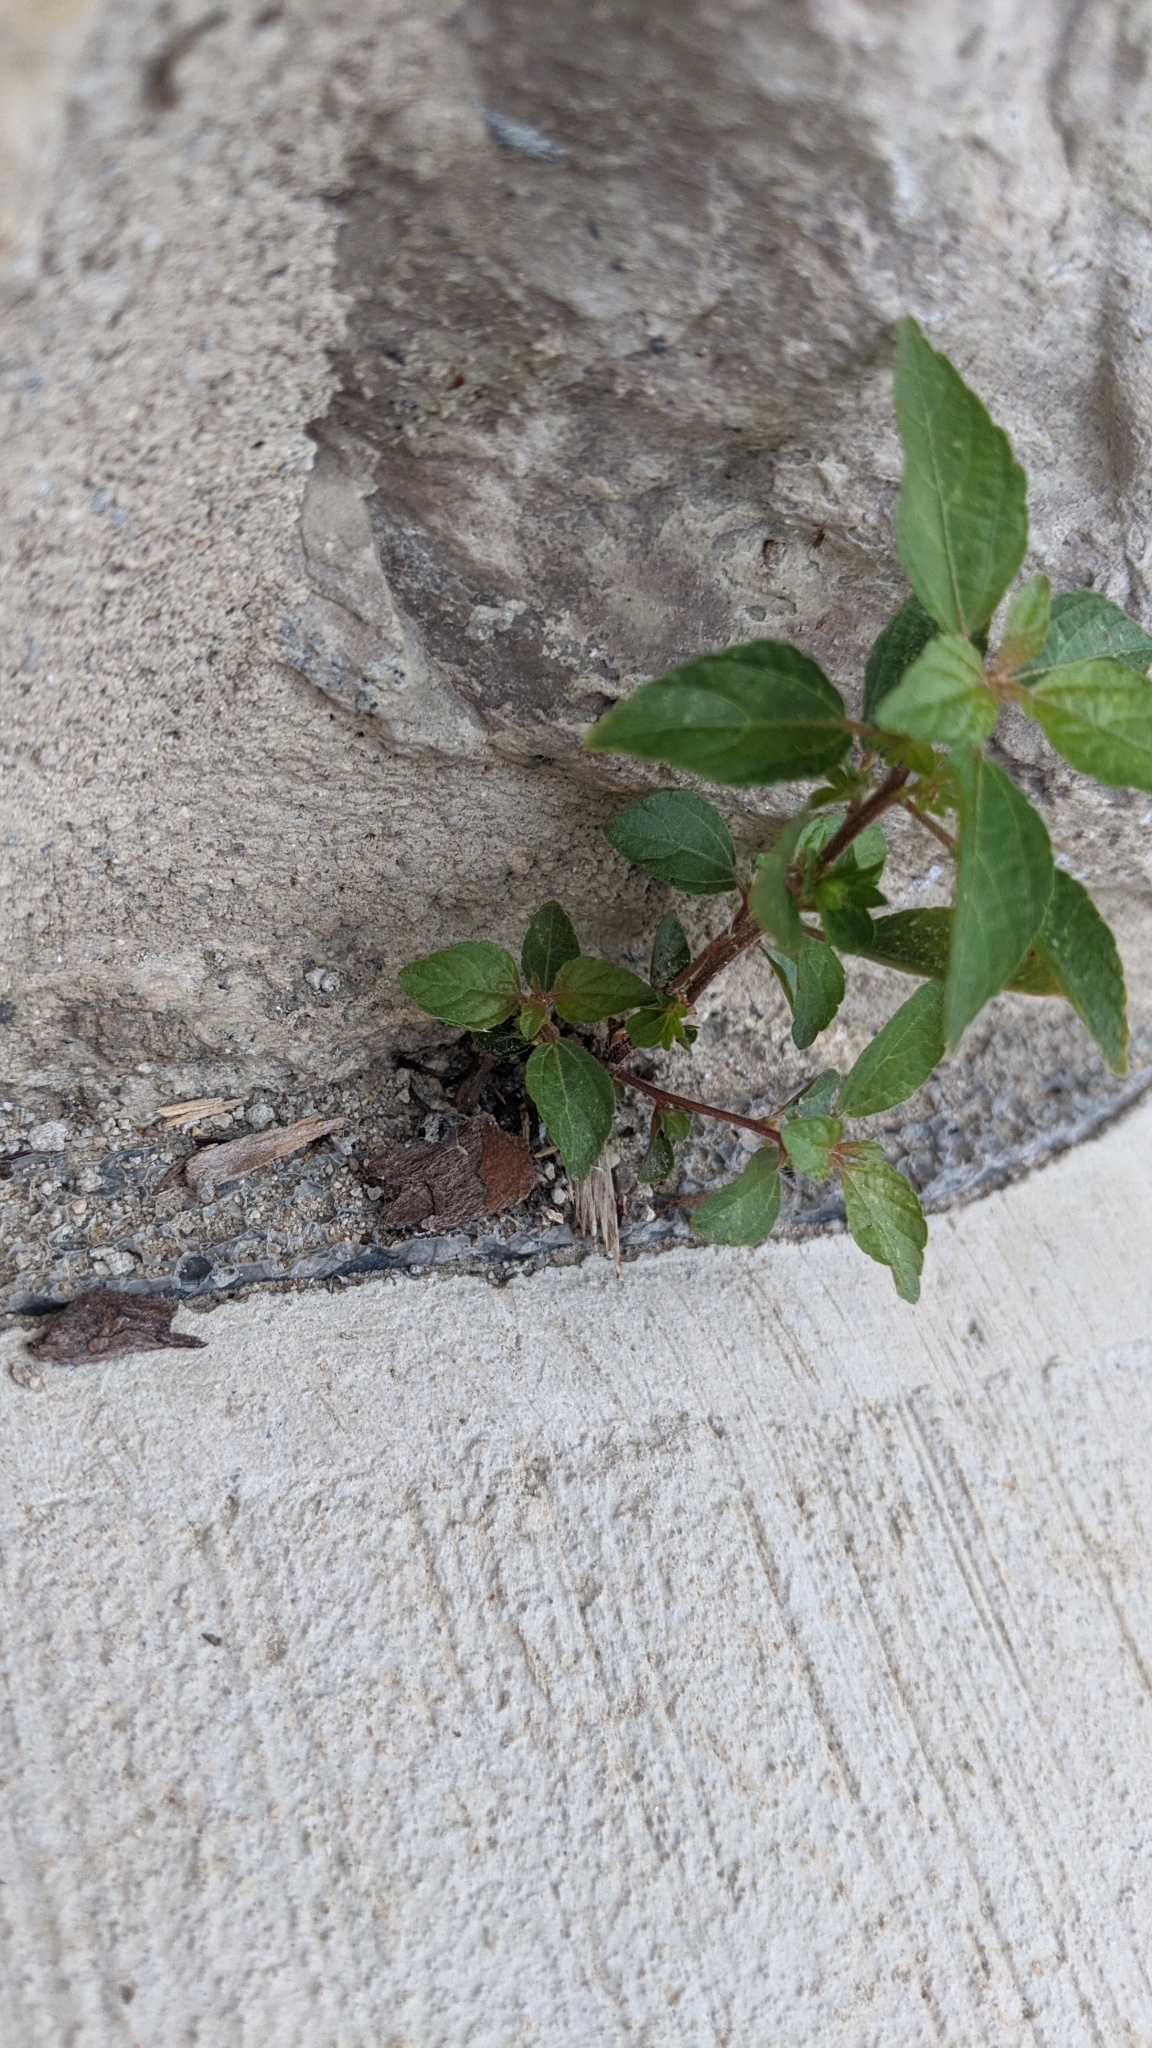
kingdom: Plantae
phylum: Tracheophyta
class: Magnoliopsida
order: Malpighiales
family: Euphorbiaceae
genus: Acalypha
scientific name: Acalypha rhomboidea
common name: Rhombic copperleaf
